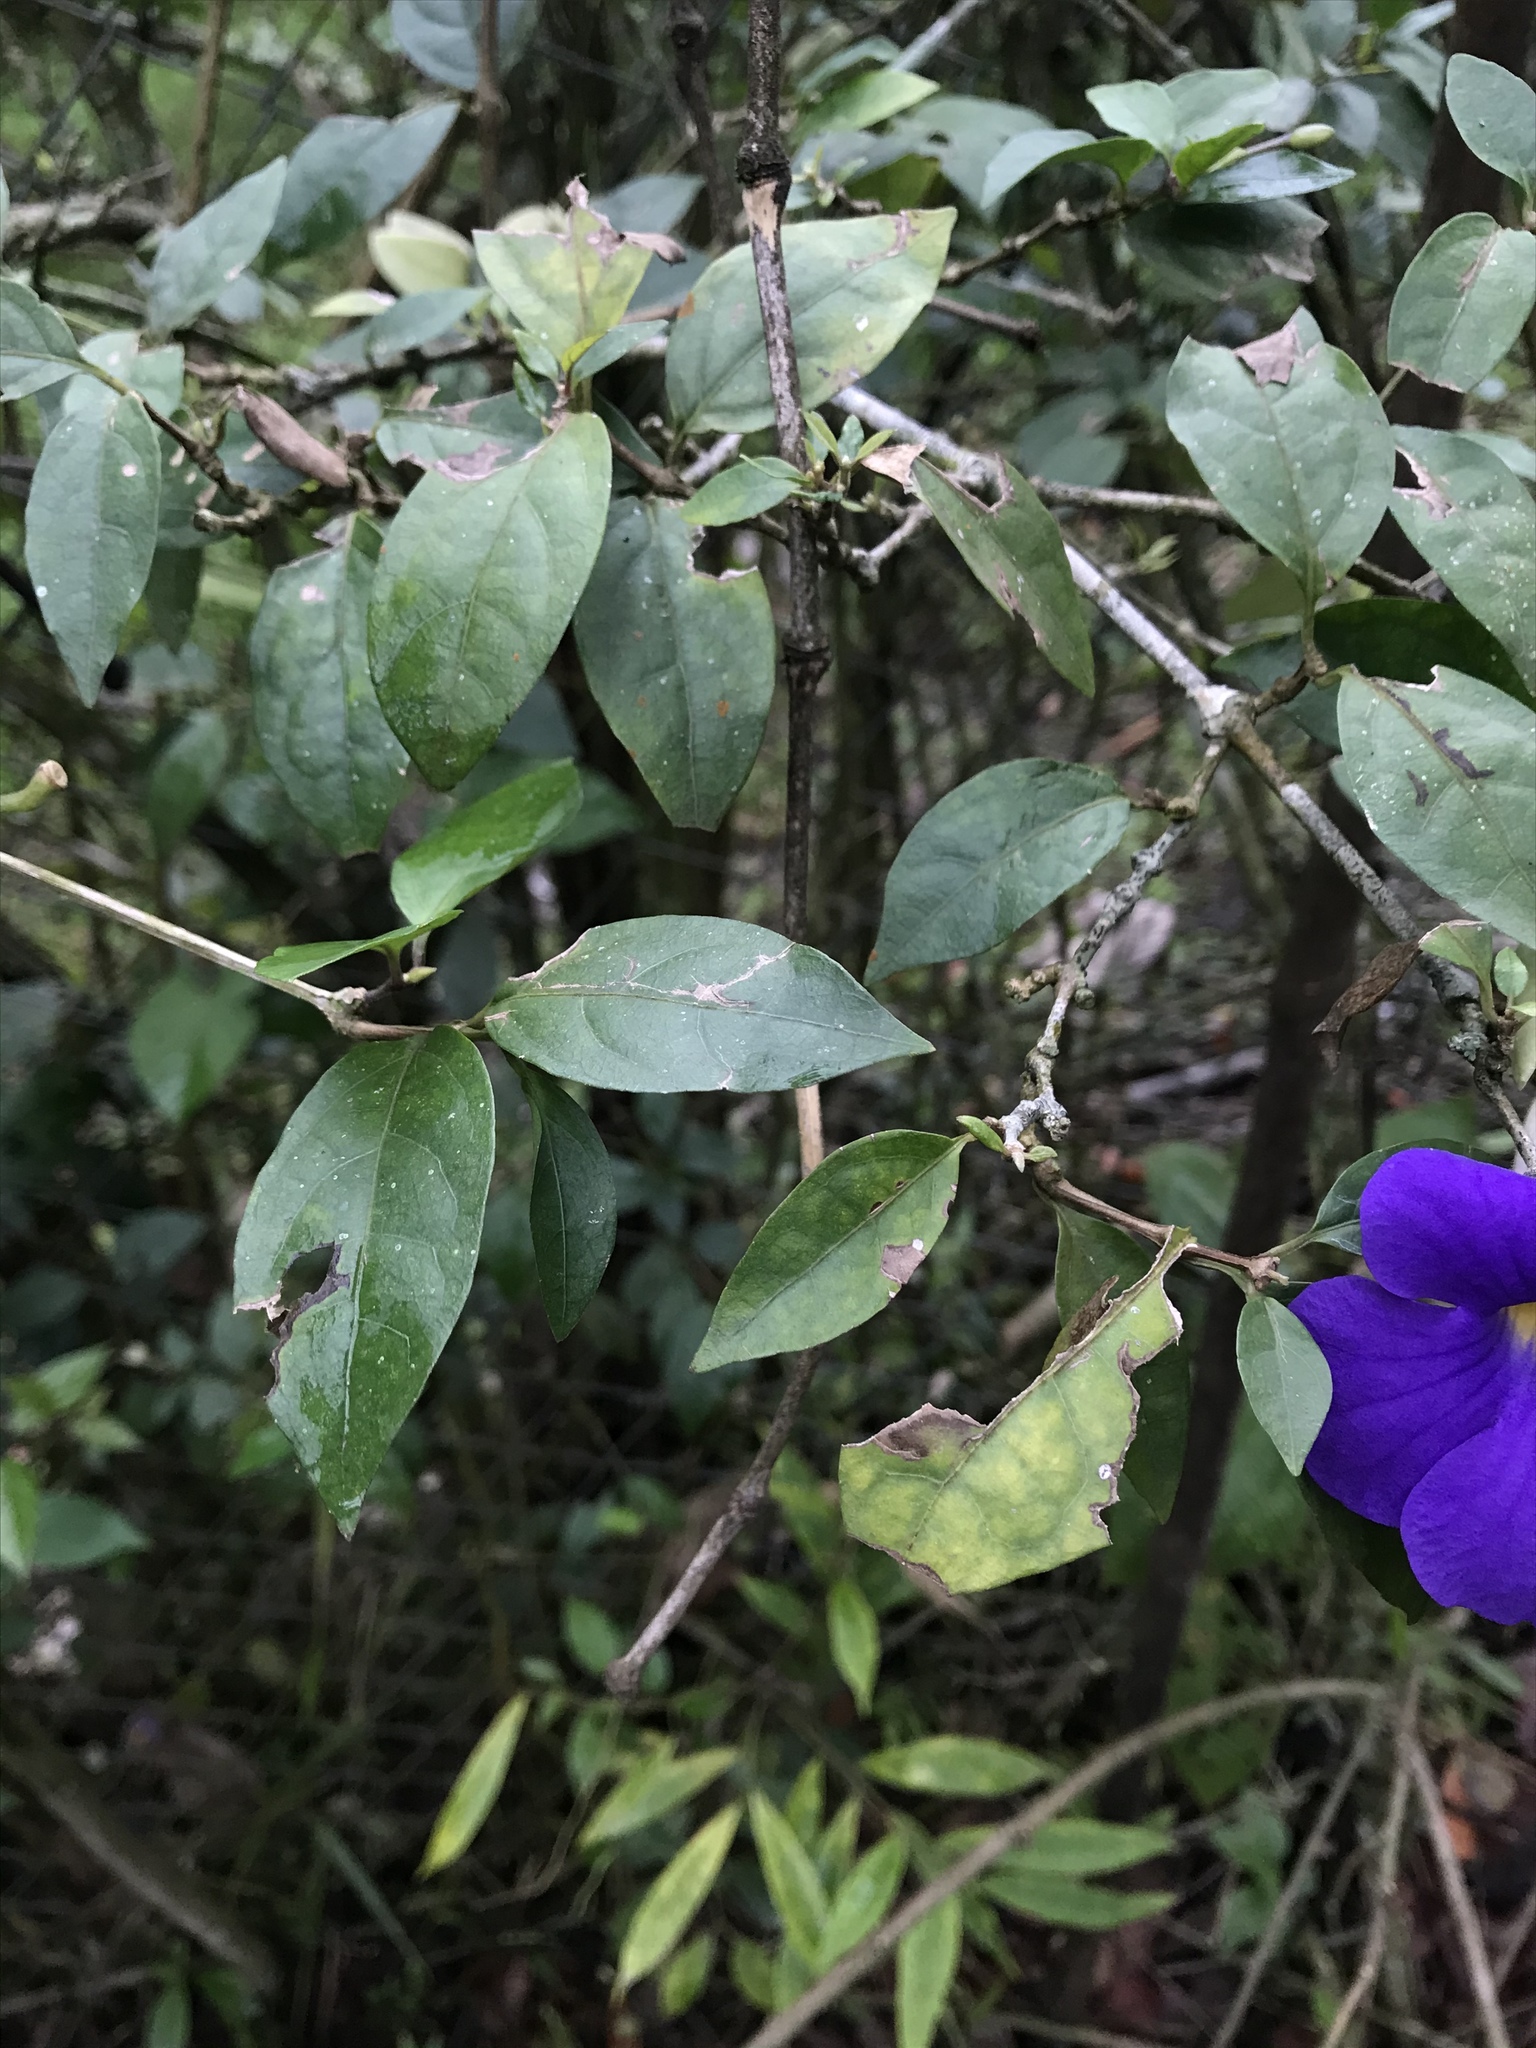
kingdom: Plantae
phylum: Tracheophyta
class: Magnoliopsida
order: Lamiales
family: Acanthaceae
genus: Thunbergia
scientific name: Thunbergia erecta
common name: Bush clockvine
